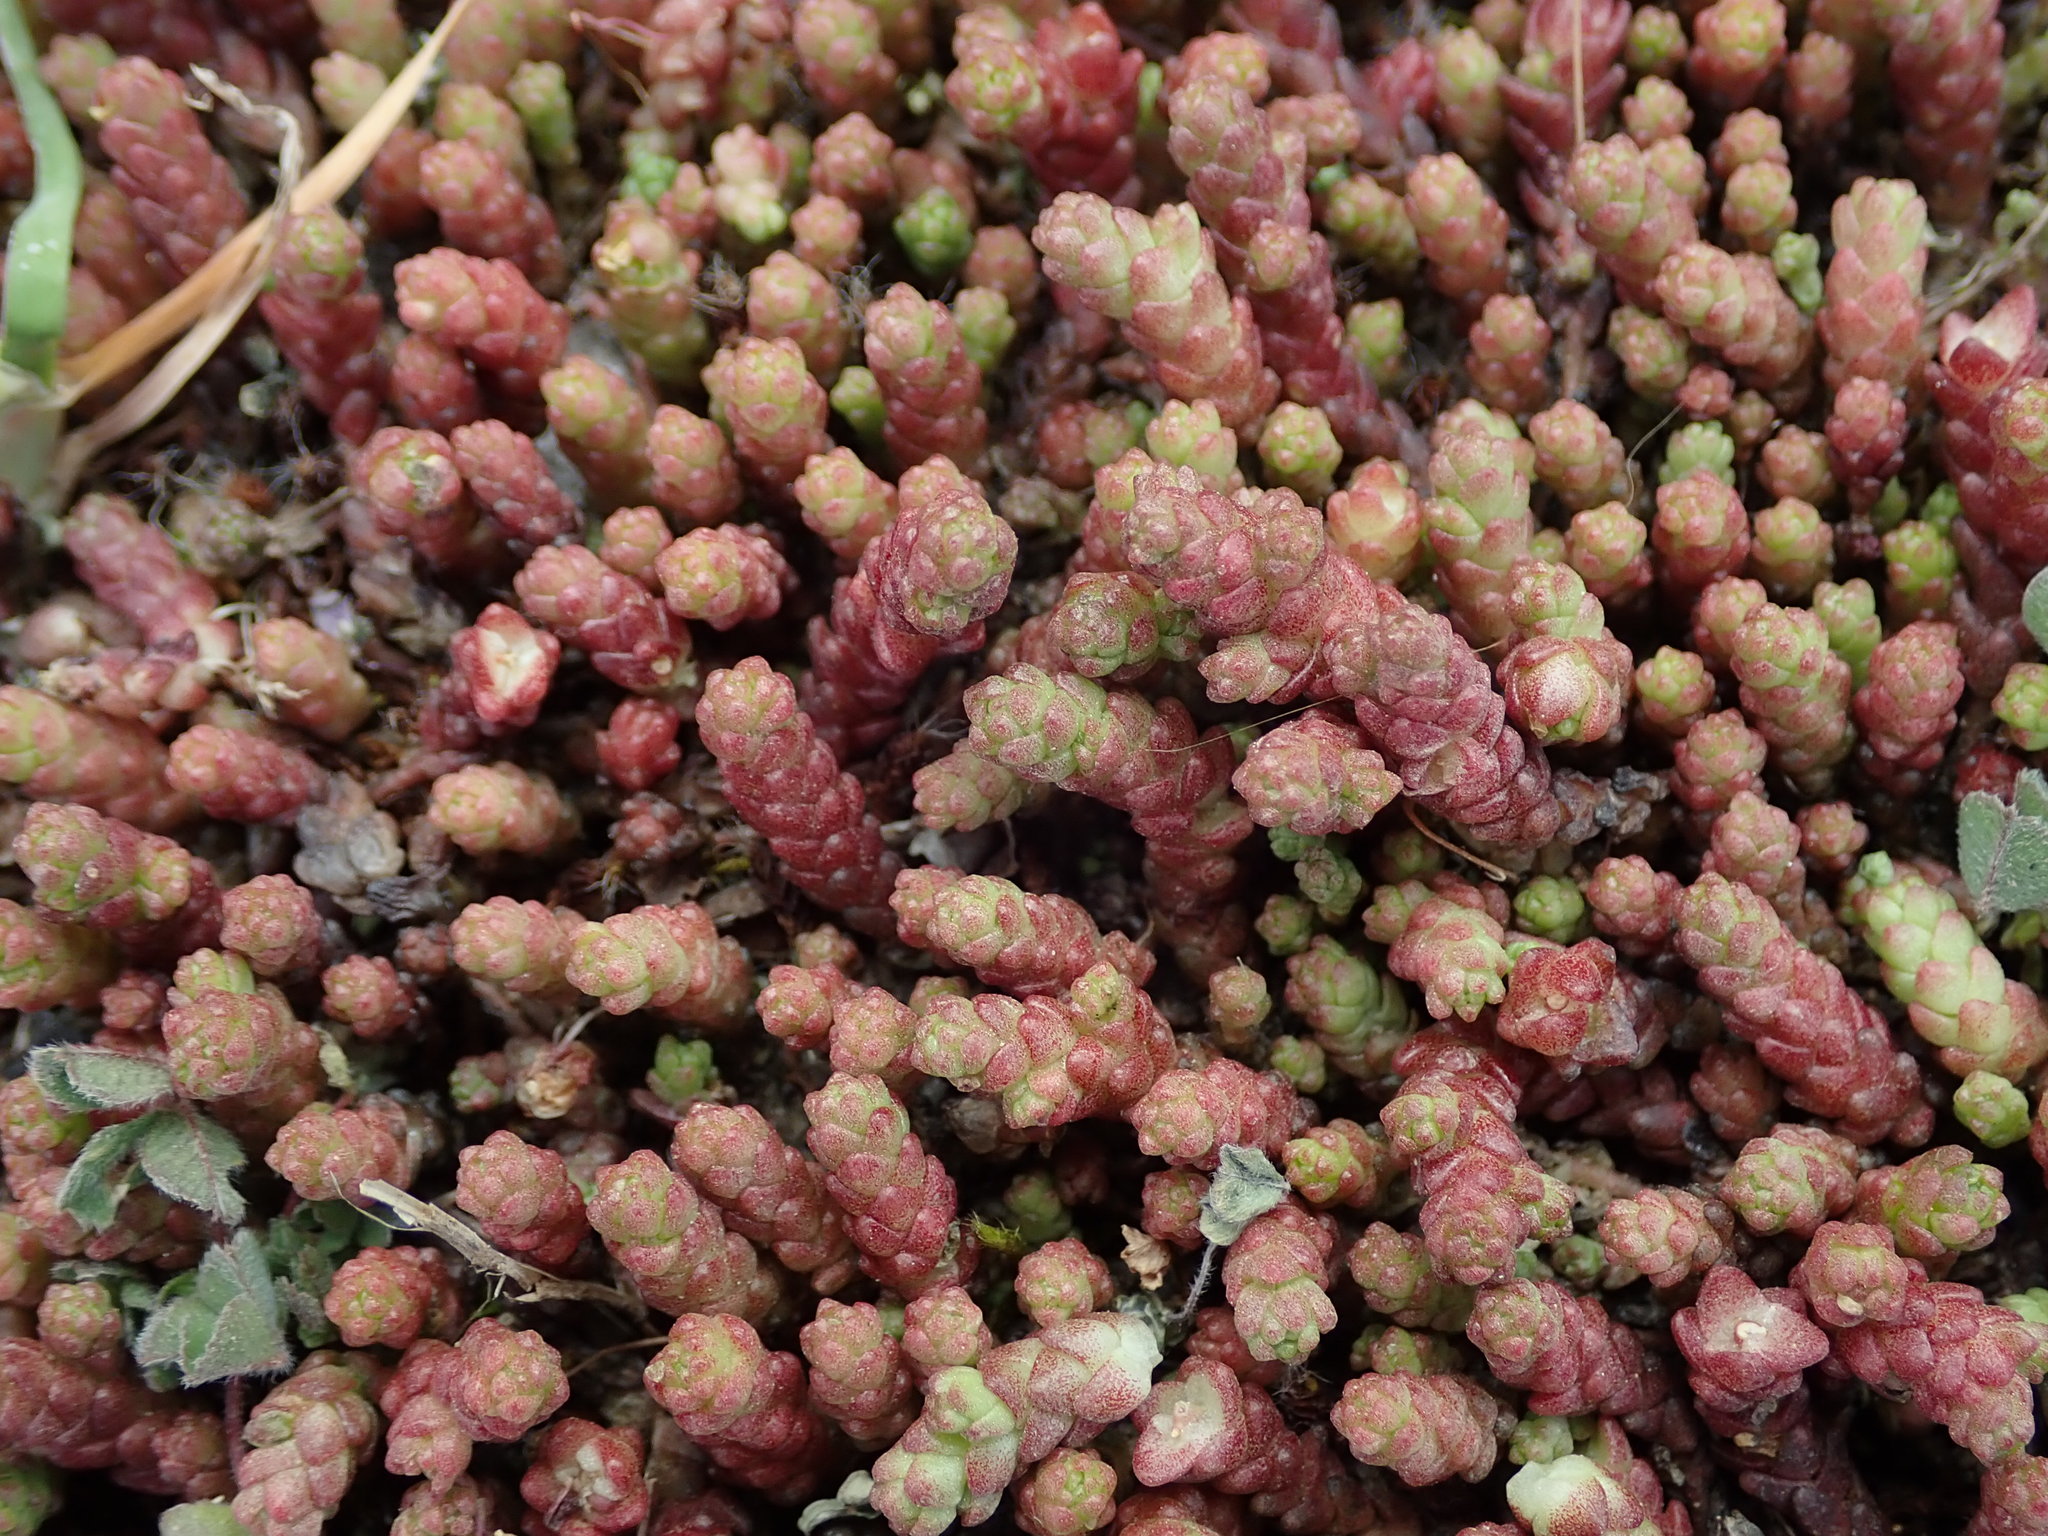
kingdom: Plantae
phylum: Tracheophyta
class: Magnoliopsida
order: Saxifragales
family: Crassulaceae
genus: Sedum
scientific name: Sedum acre
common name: Biting stonecrop
